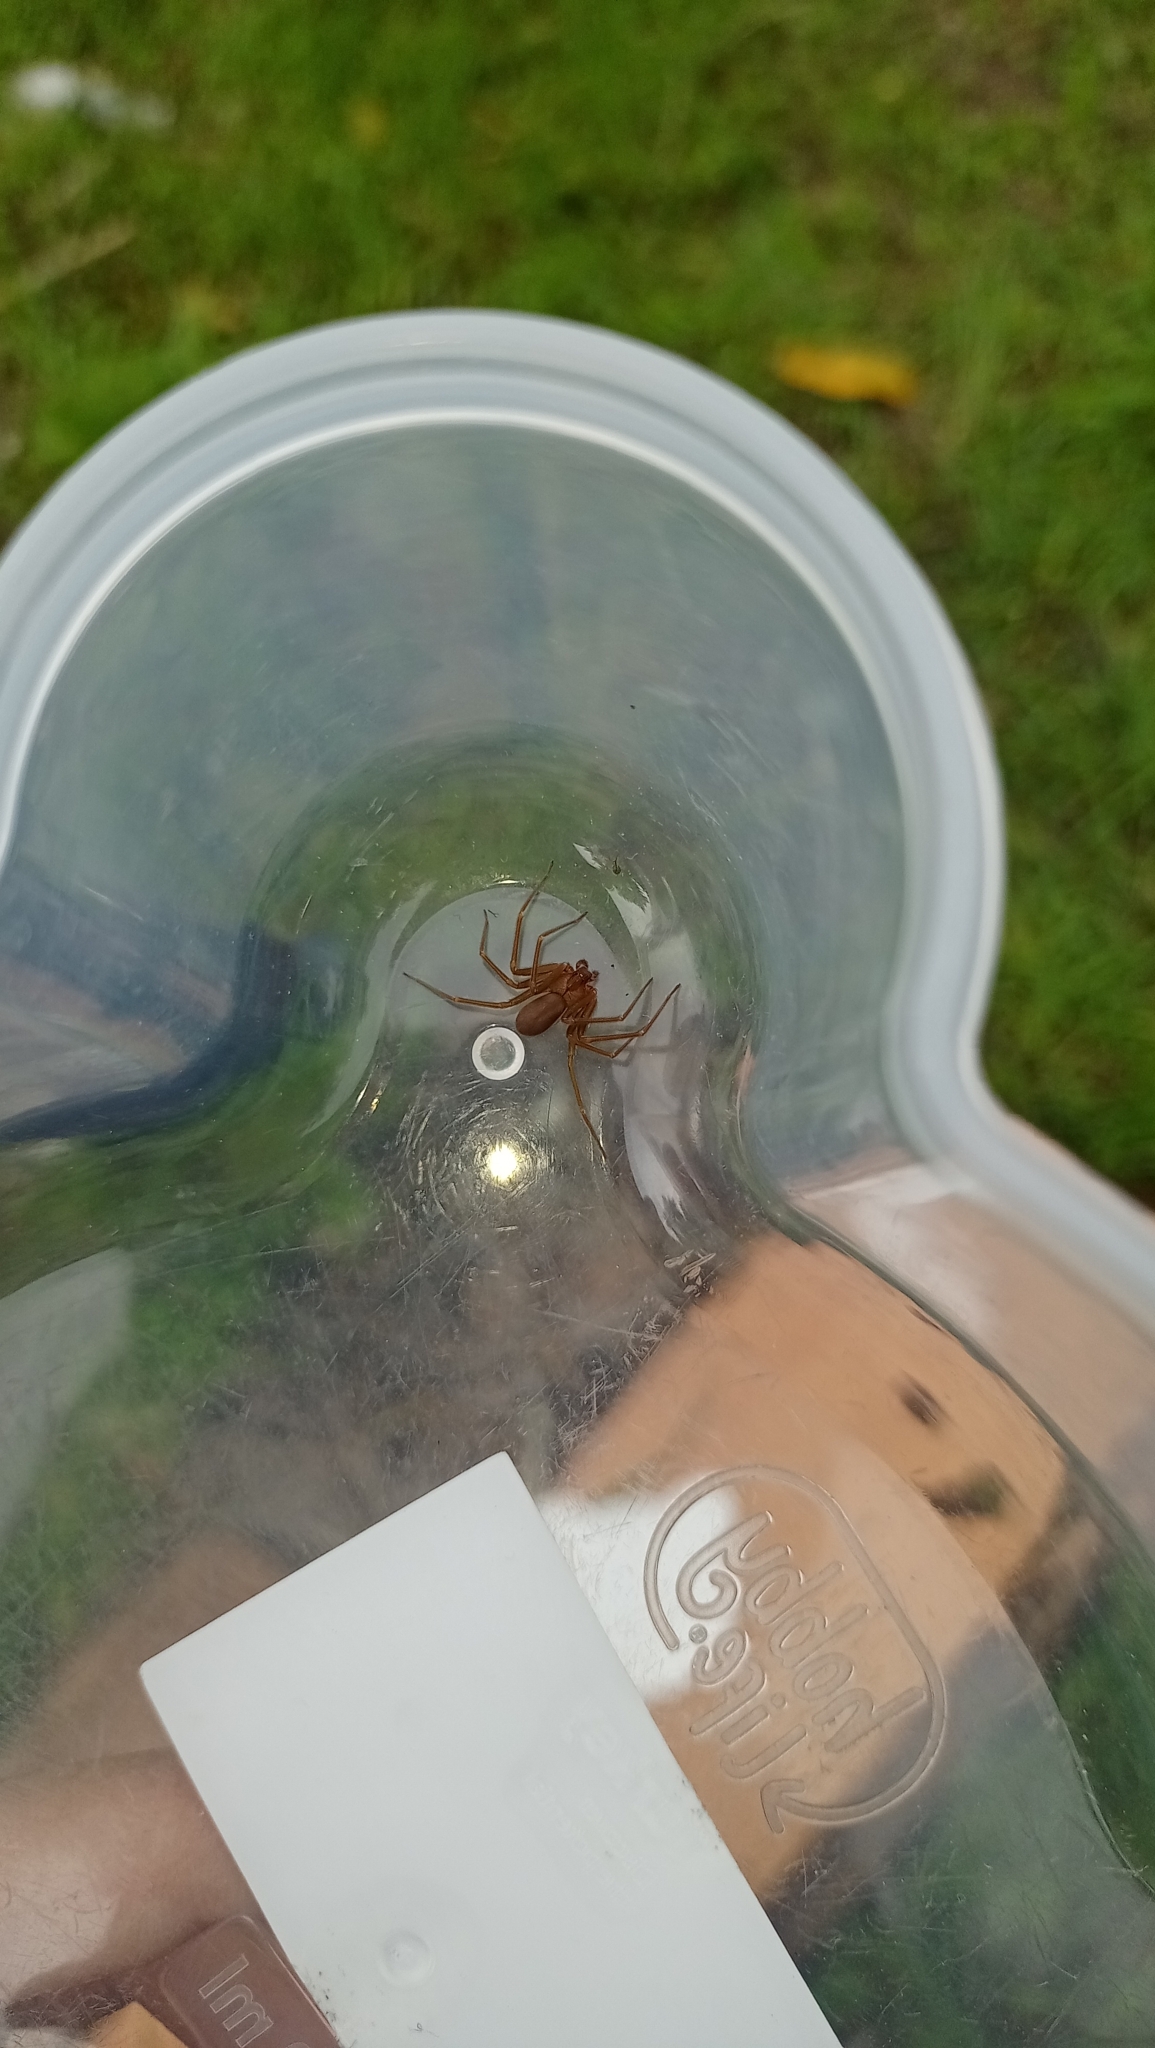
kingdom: Animalia
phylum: Arthropoda
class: Arachnida
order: Araneae
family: Sicariidae
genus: Loxosceles
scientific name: Loxosceles rufescens
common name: Mediterranean recluse spider
